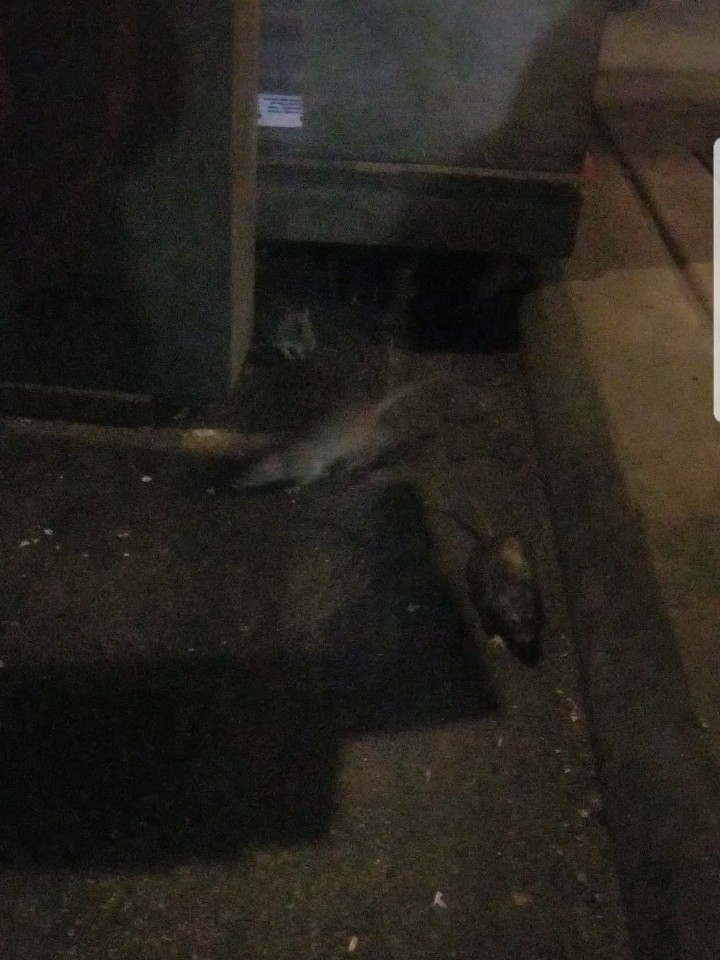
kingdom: Animalia
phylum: Chordata
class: Mammalia
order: Rodentia
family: Muridae
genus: Rattus
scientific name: Rattus norvegicus
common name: Brown rat
